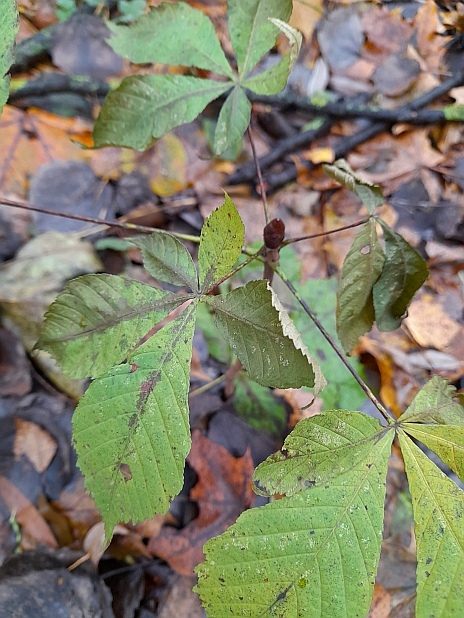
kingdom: Plantae
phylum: Tracheophyta
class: Magnoliopsida
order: Sapindales
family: Sapindaceae
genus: Aesculus
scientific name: Aesculus hippocastanum
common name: Horse-chestnut
